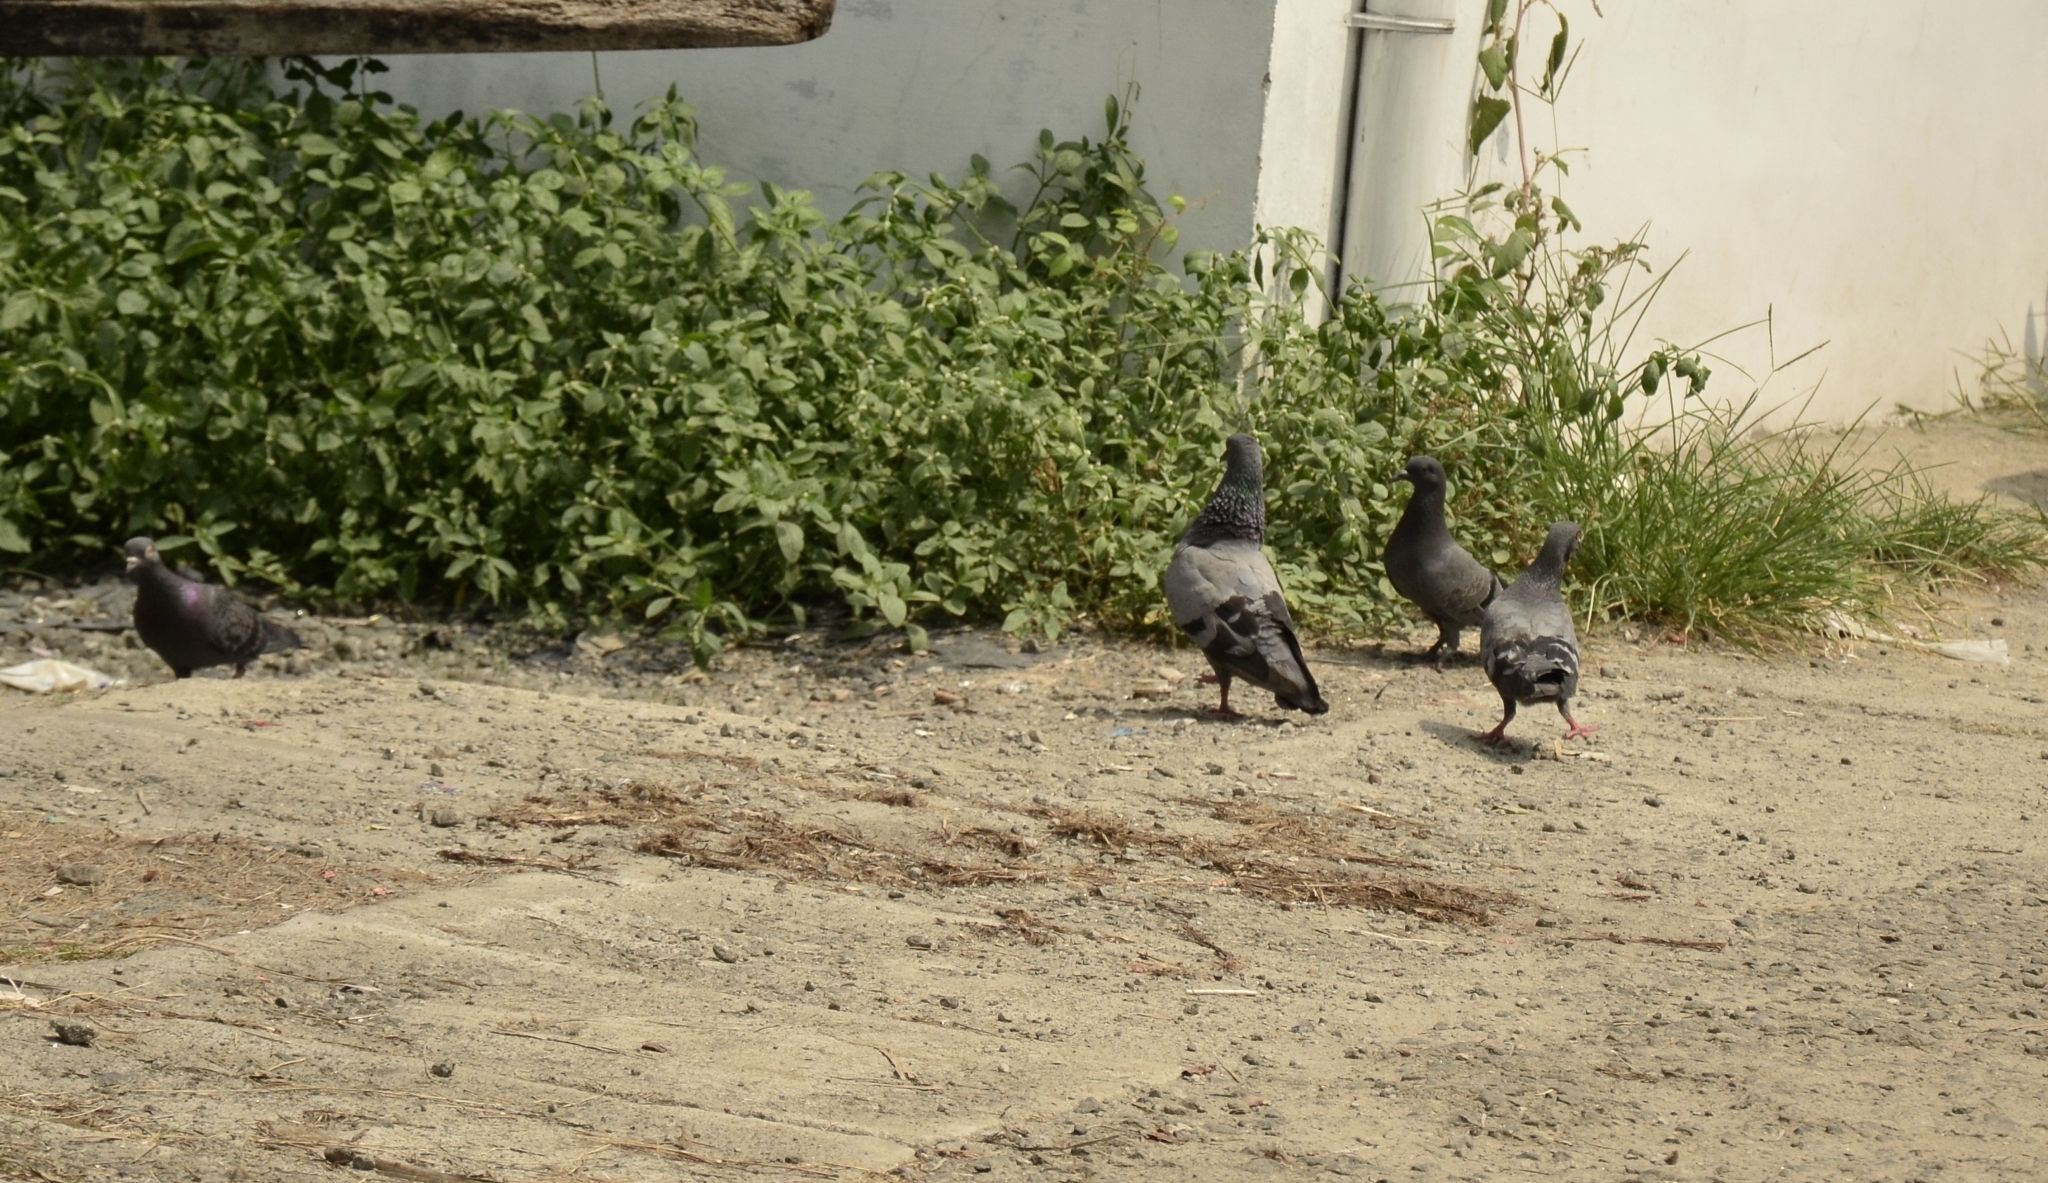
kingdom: Animalia
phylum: Chordata
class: Aves
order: Columbiformes
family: Columbidae
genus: Columba
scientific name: Columba livia
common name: Rock pigeon
